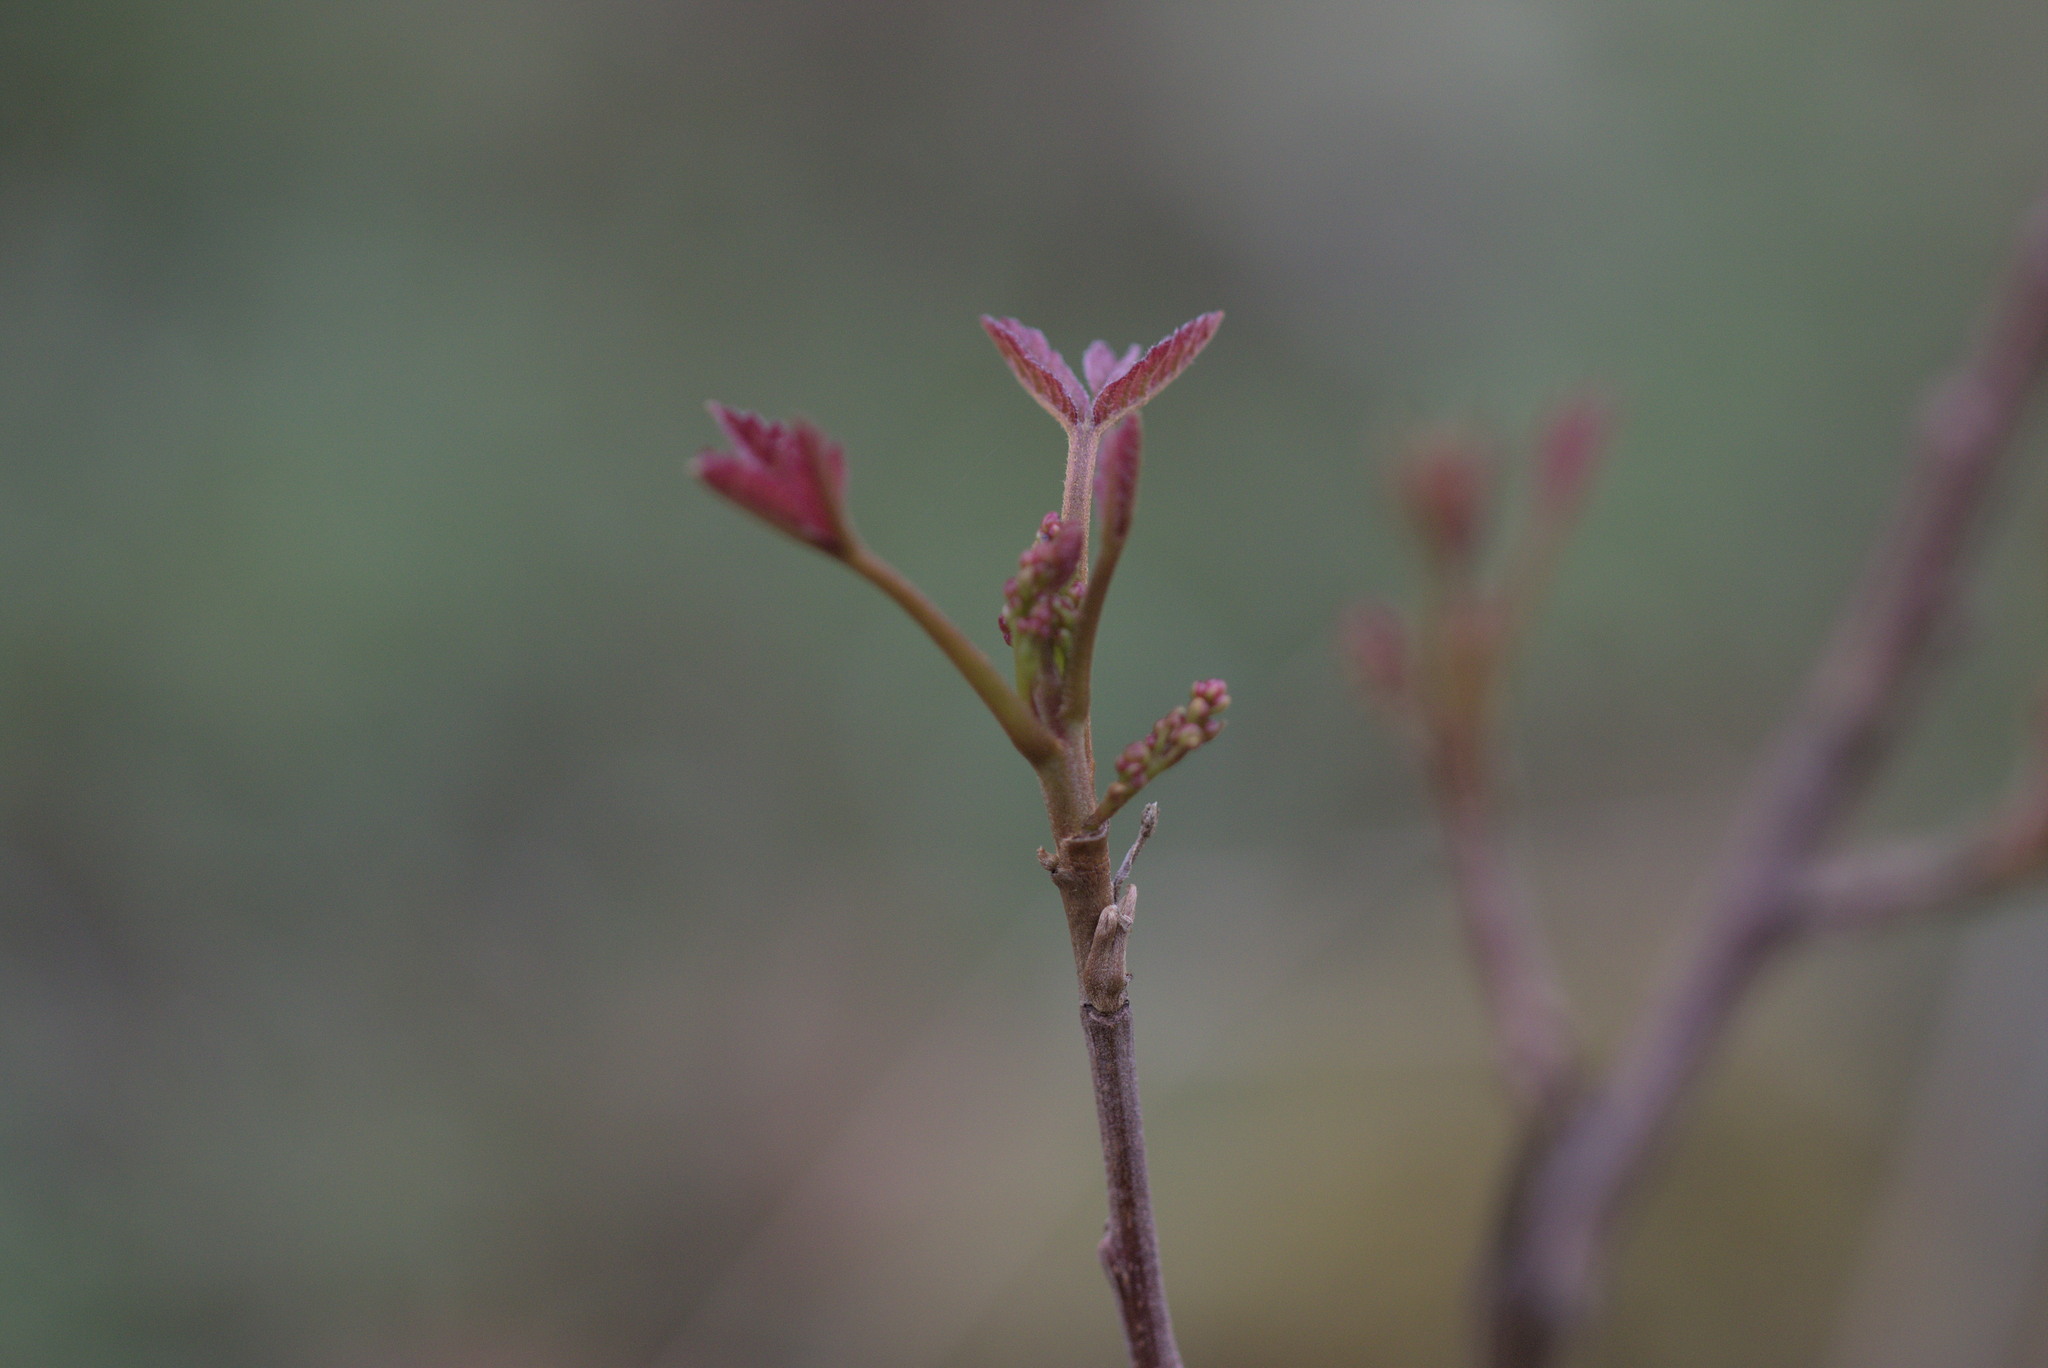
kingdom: Plantae
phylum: Tracheophyta
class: Magnoliopsida
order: Sapindales
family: Anacardiaceae
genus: Toxicodendron
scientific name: Toxicodendron diversilobum
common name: Pacific poison-oak
